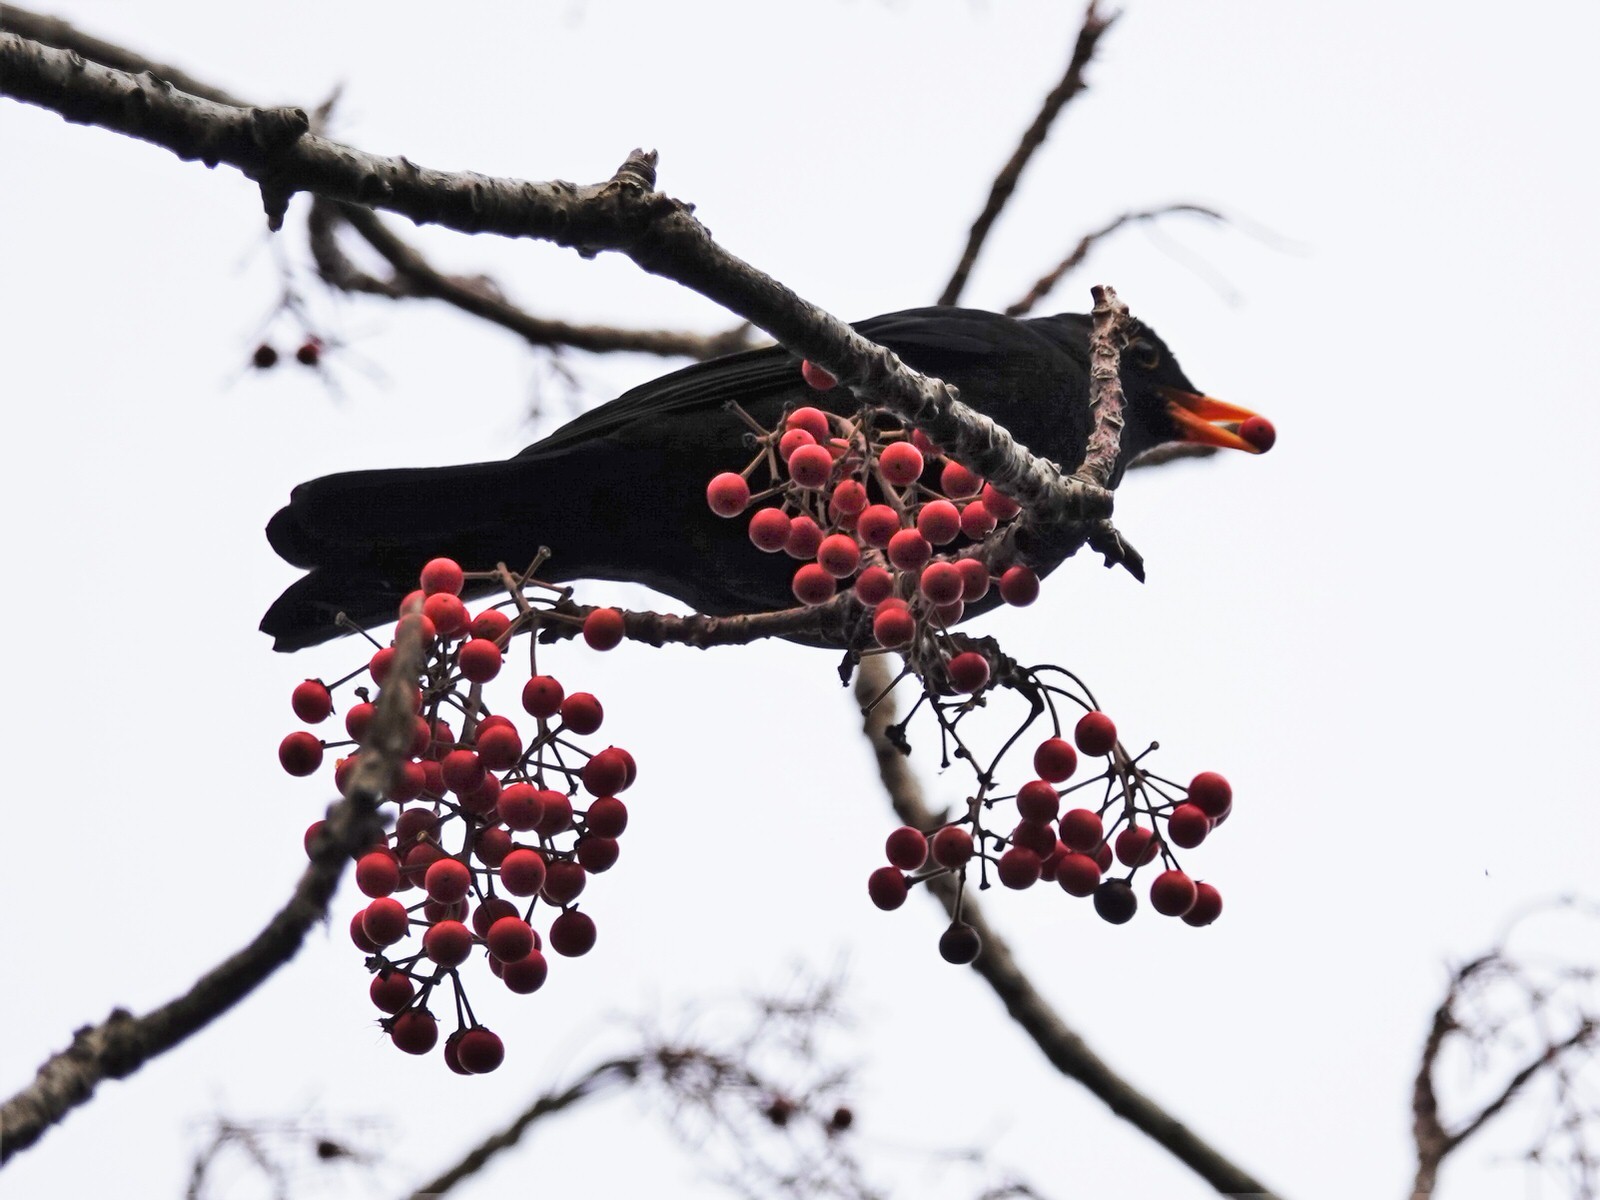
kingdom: Animalia
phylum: Chordata
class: Aves
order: Passeriformes
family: Turdidae
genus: Turdus
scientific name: Turdus merula
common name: Common blackbird
